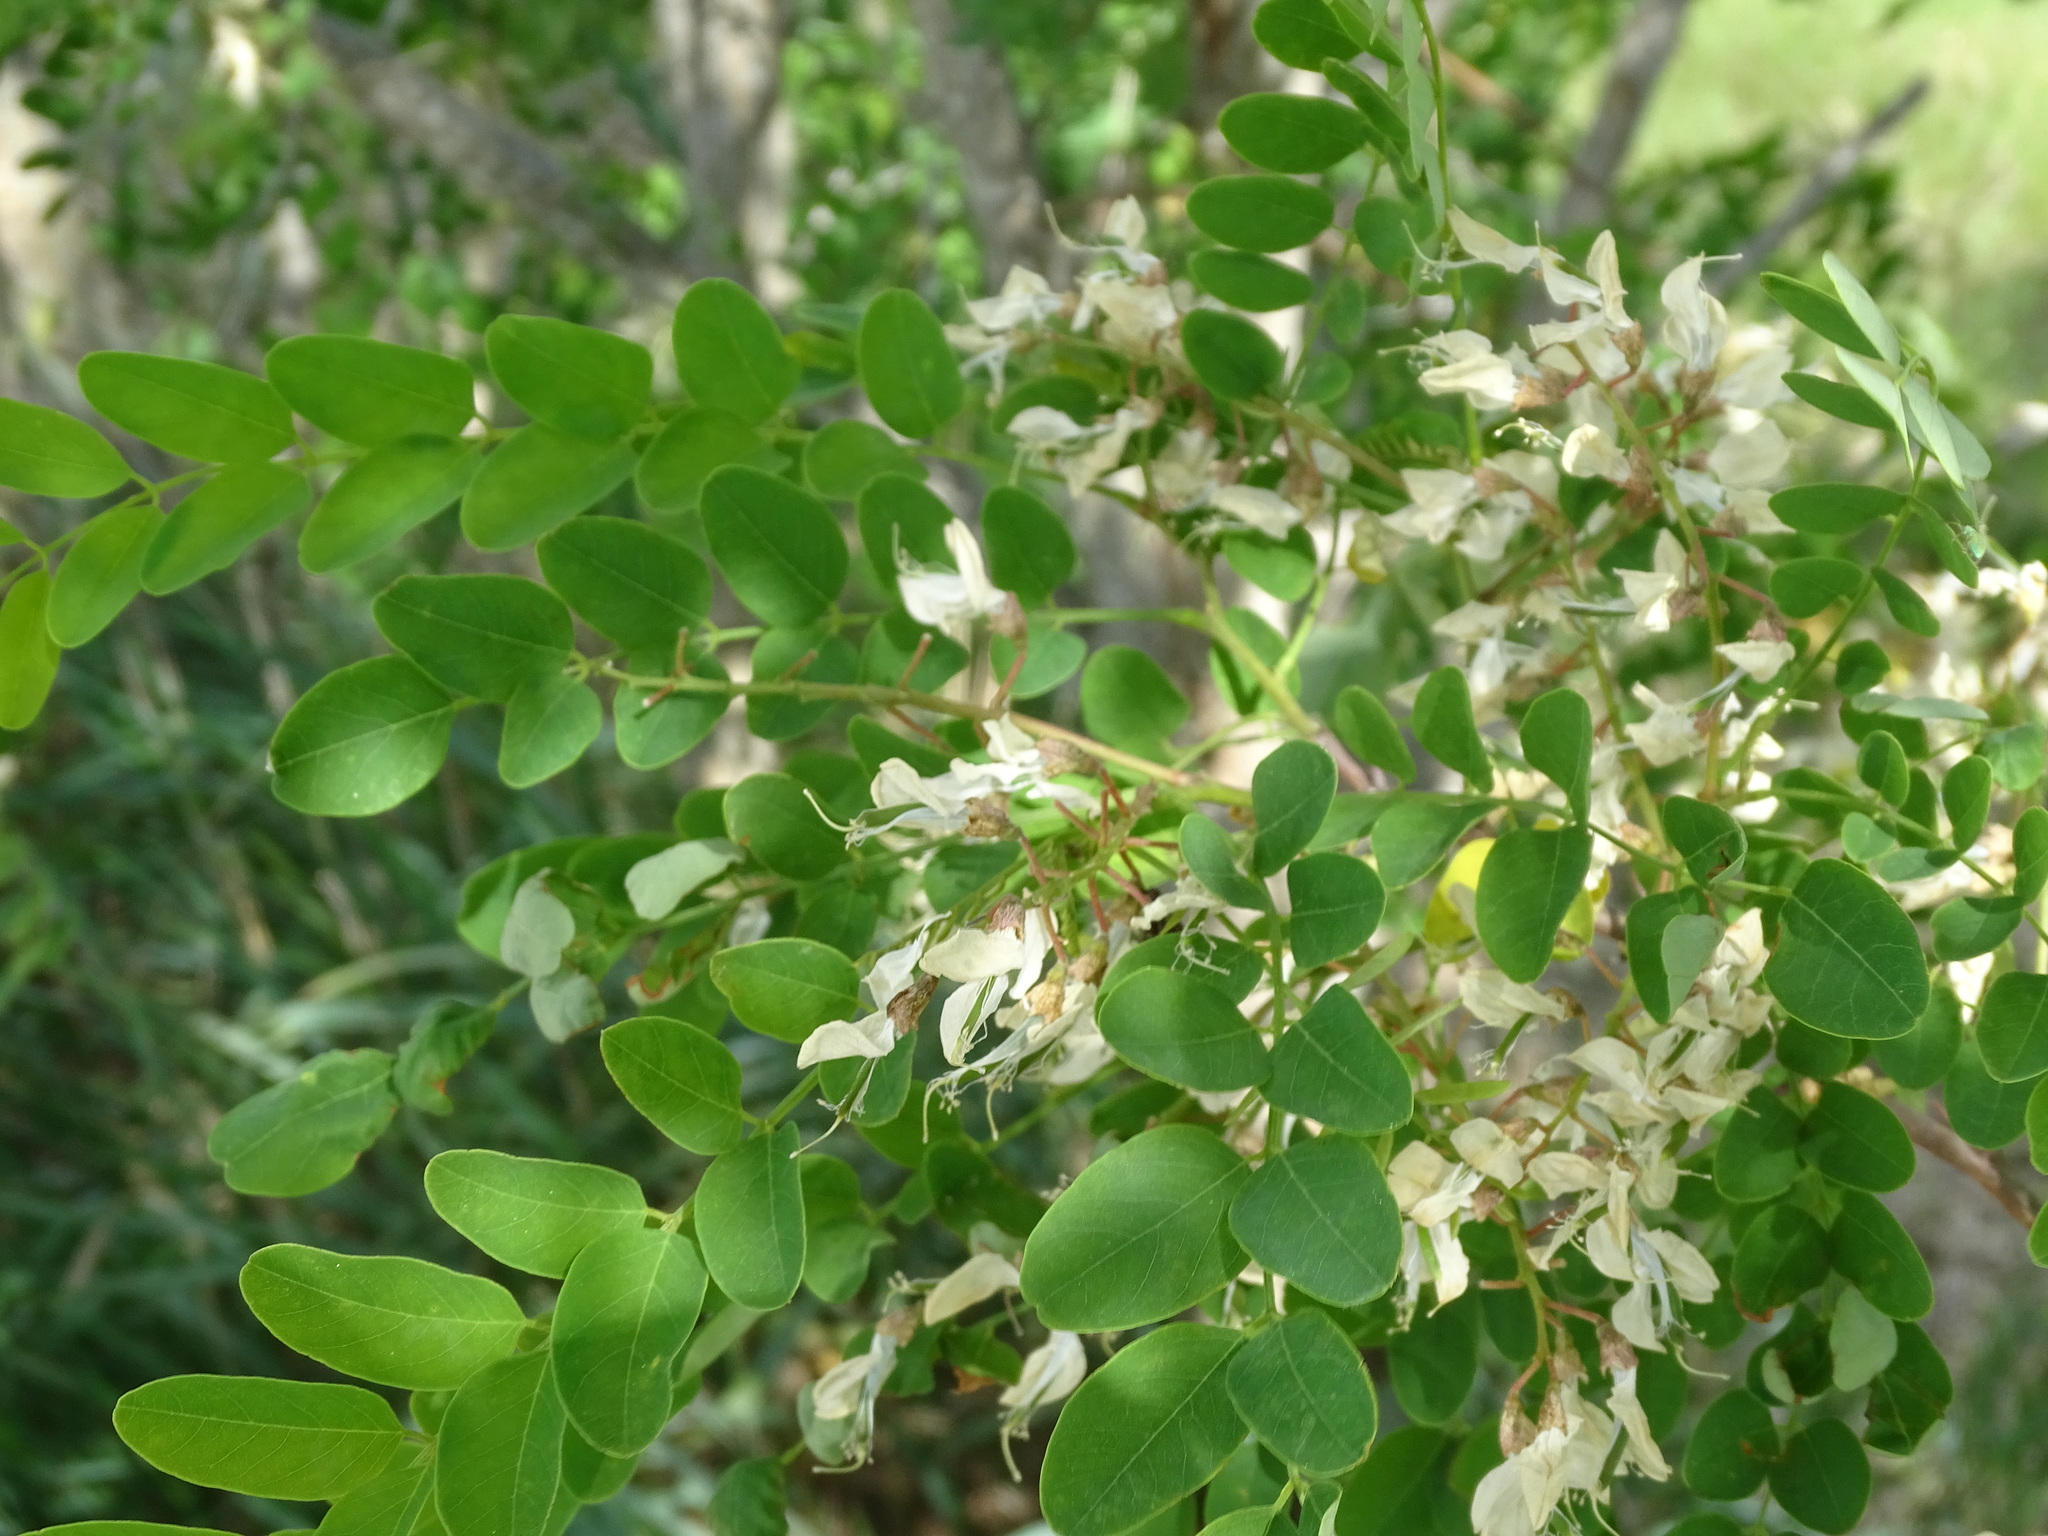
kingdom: Plantae
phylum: Tracheophyta
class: Magnoliopsida
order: Fabales
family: Fabaceae
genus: Robinia
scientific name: Robinia pseudoacacia
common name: Black locust
